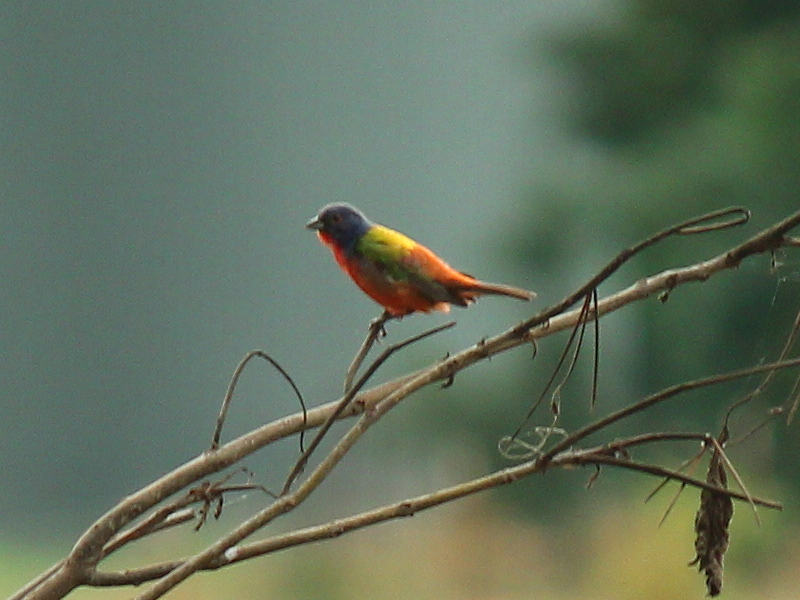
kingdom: Animalia
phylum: Chordata
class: Aves
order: Passeriformes
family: Cardinalidae
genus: Passerina
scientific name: Passerina ciris
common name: Painted bunting
